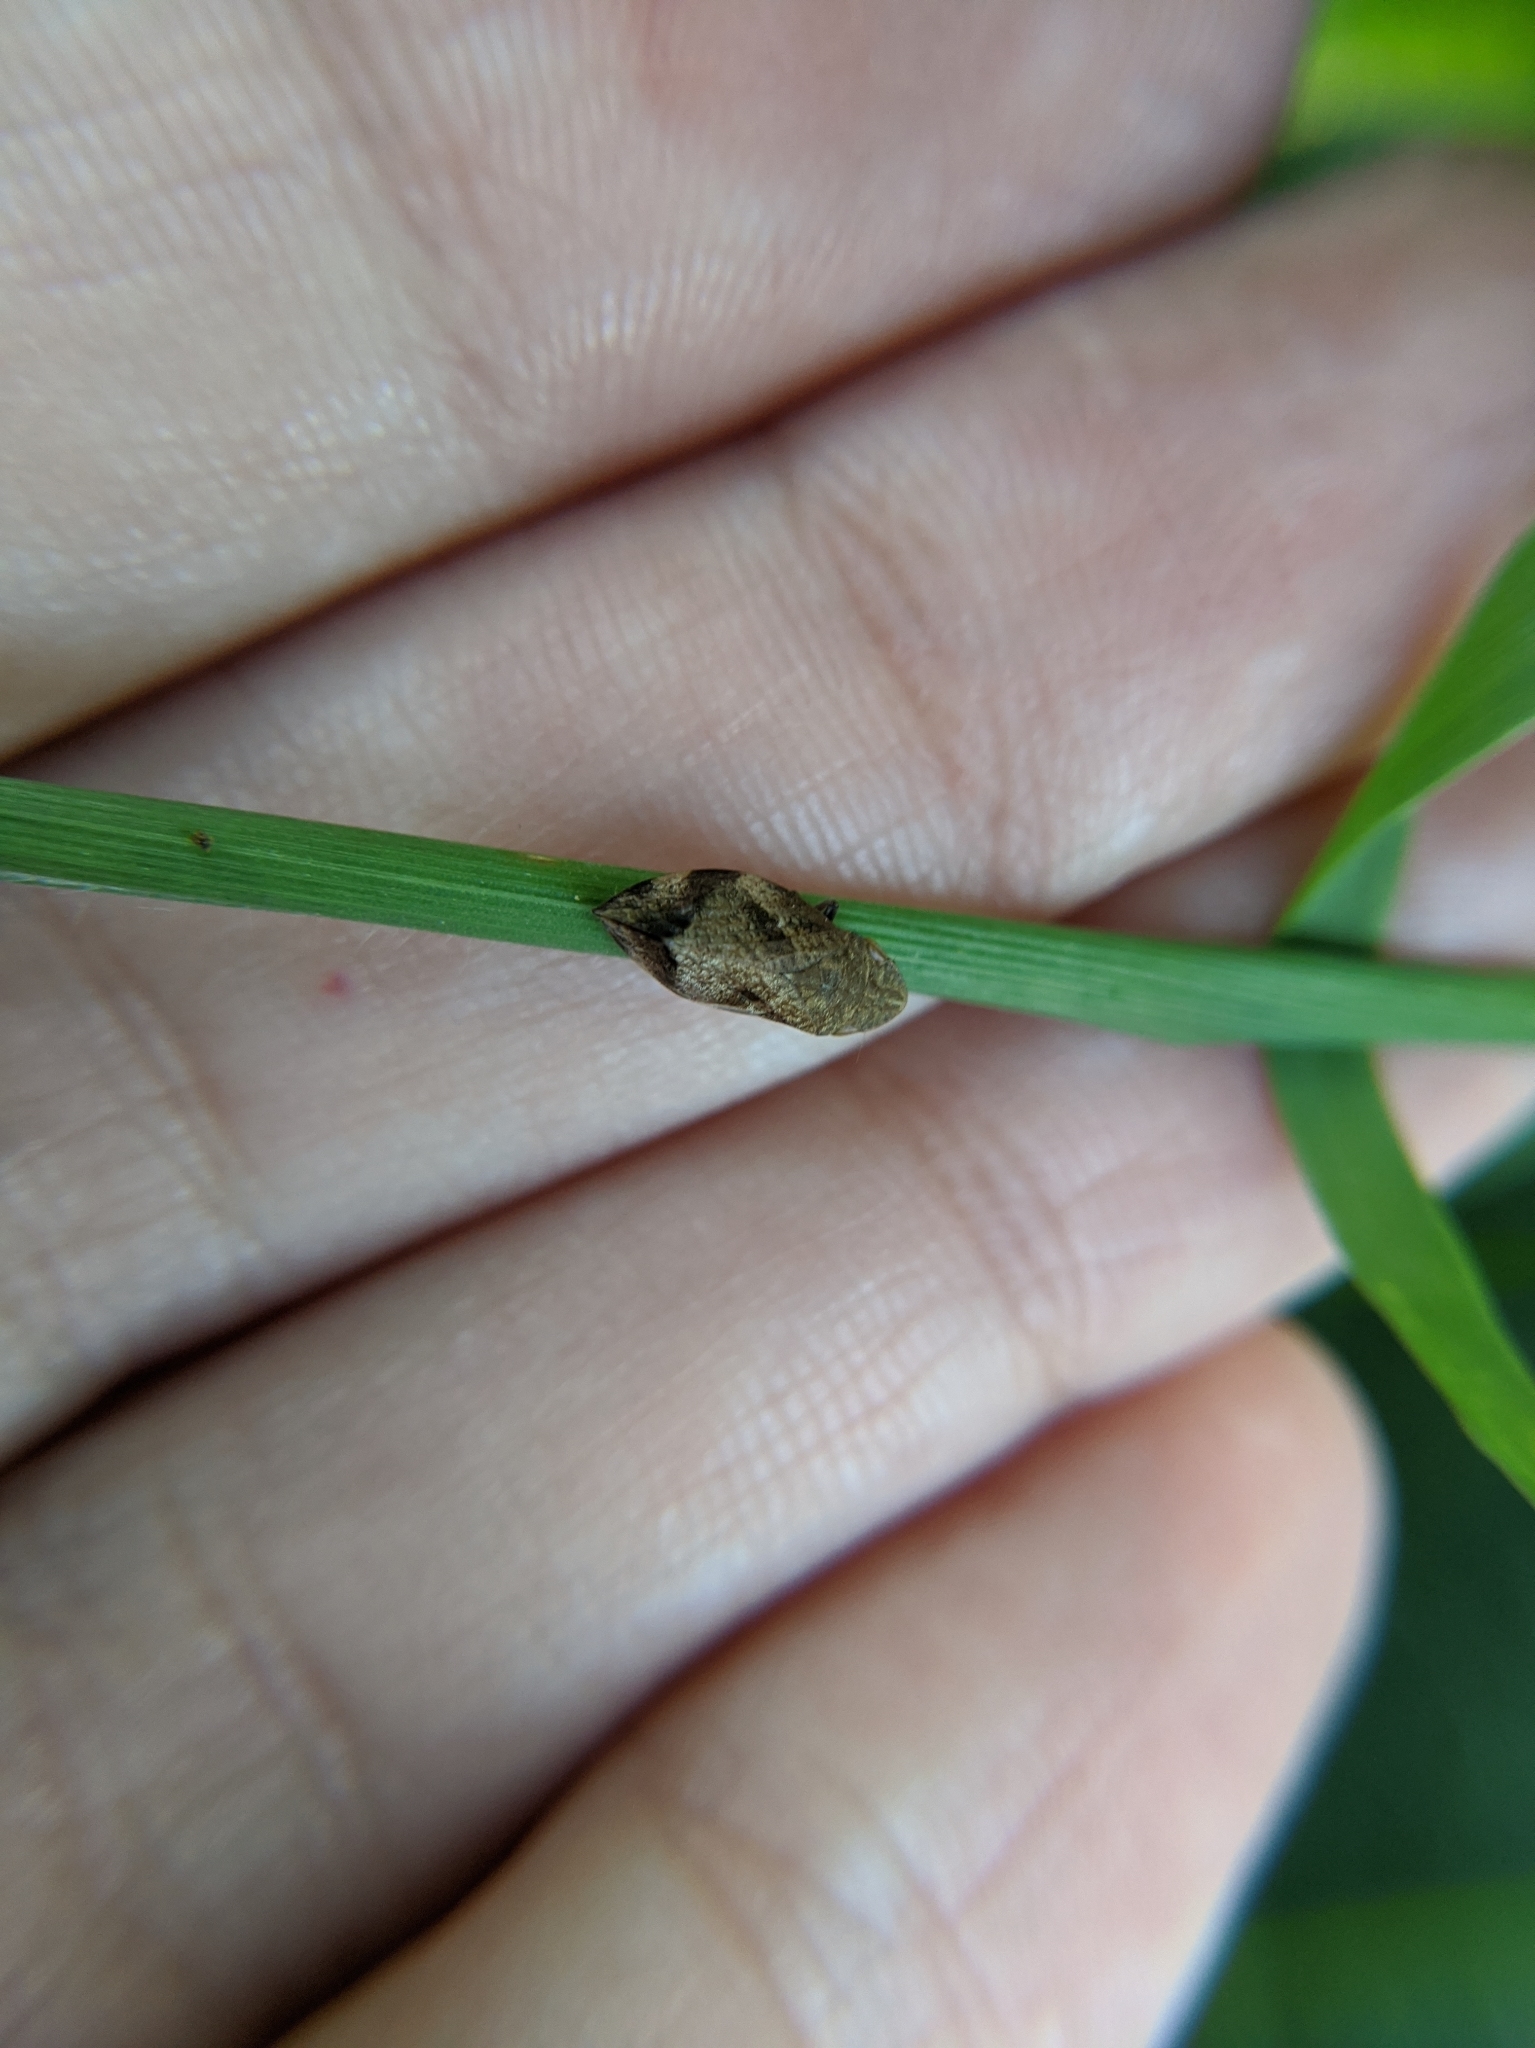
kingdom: Animalia
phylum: Arthropoda
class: Insecta
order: Hemiptera
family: Aphrophoridae
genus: Lepyronia
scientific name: Lepyronia quadrangularis
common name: Diamond-backed spittlebug
